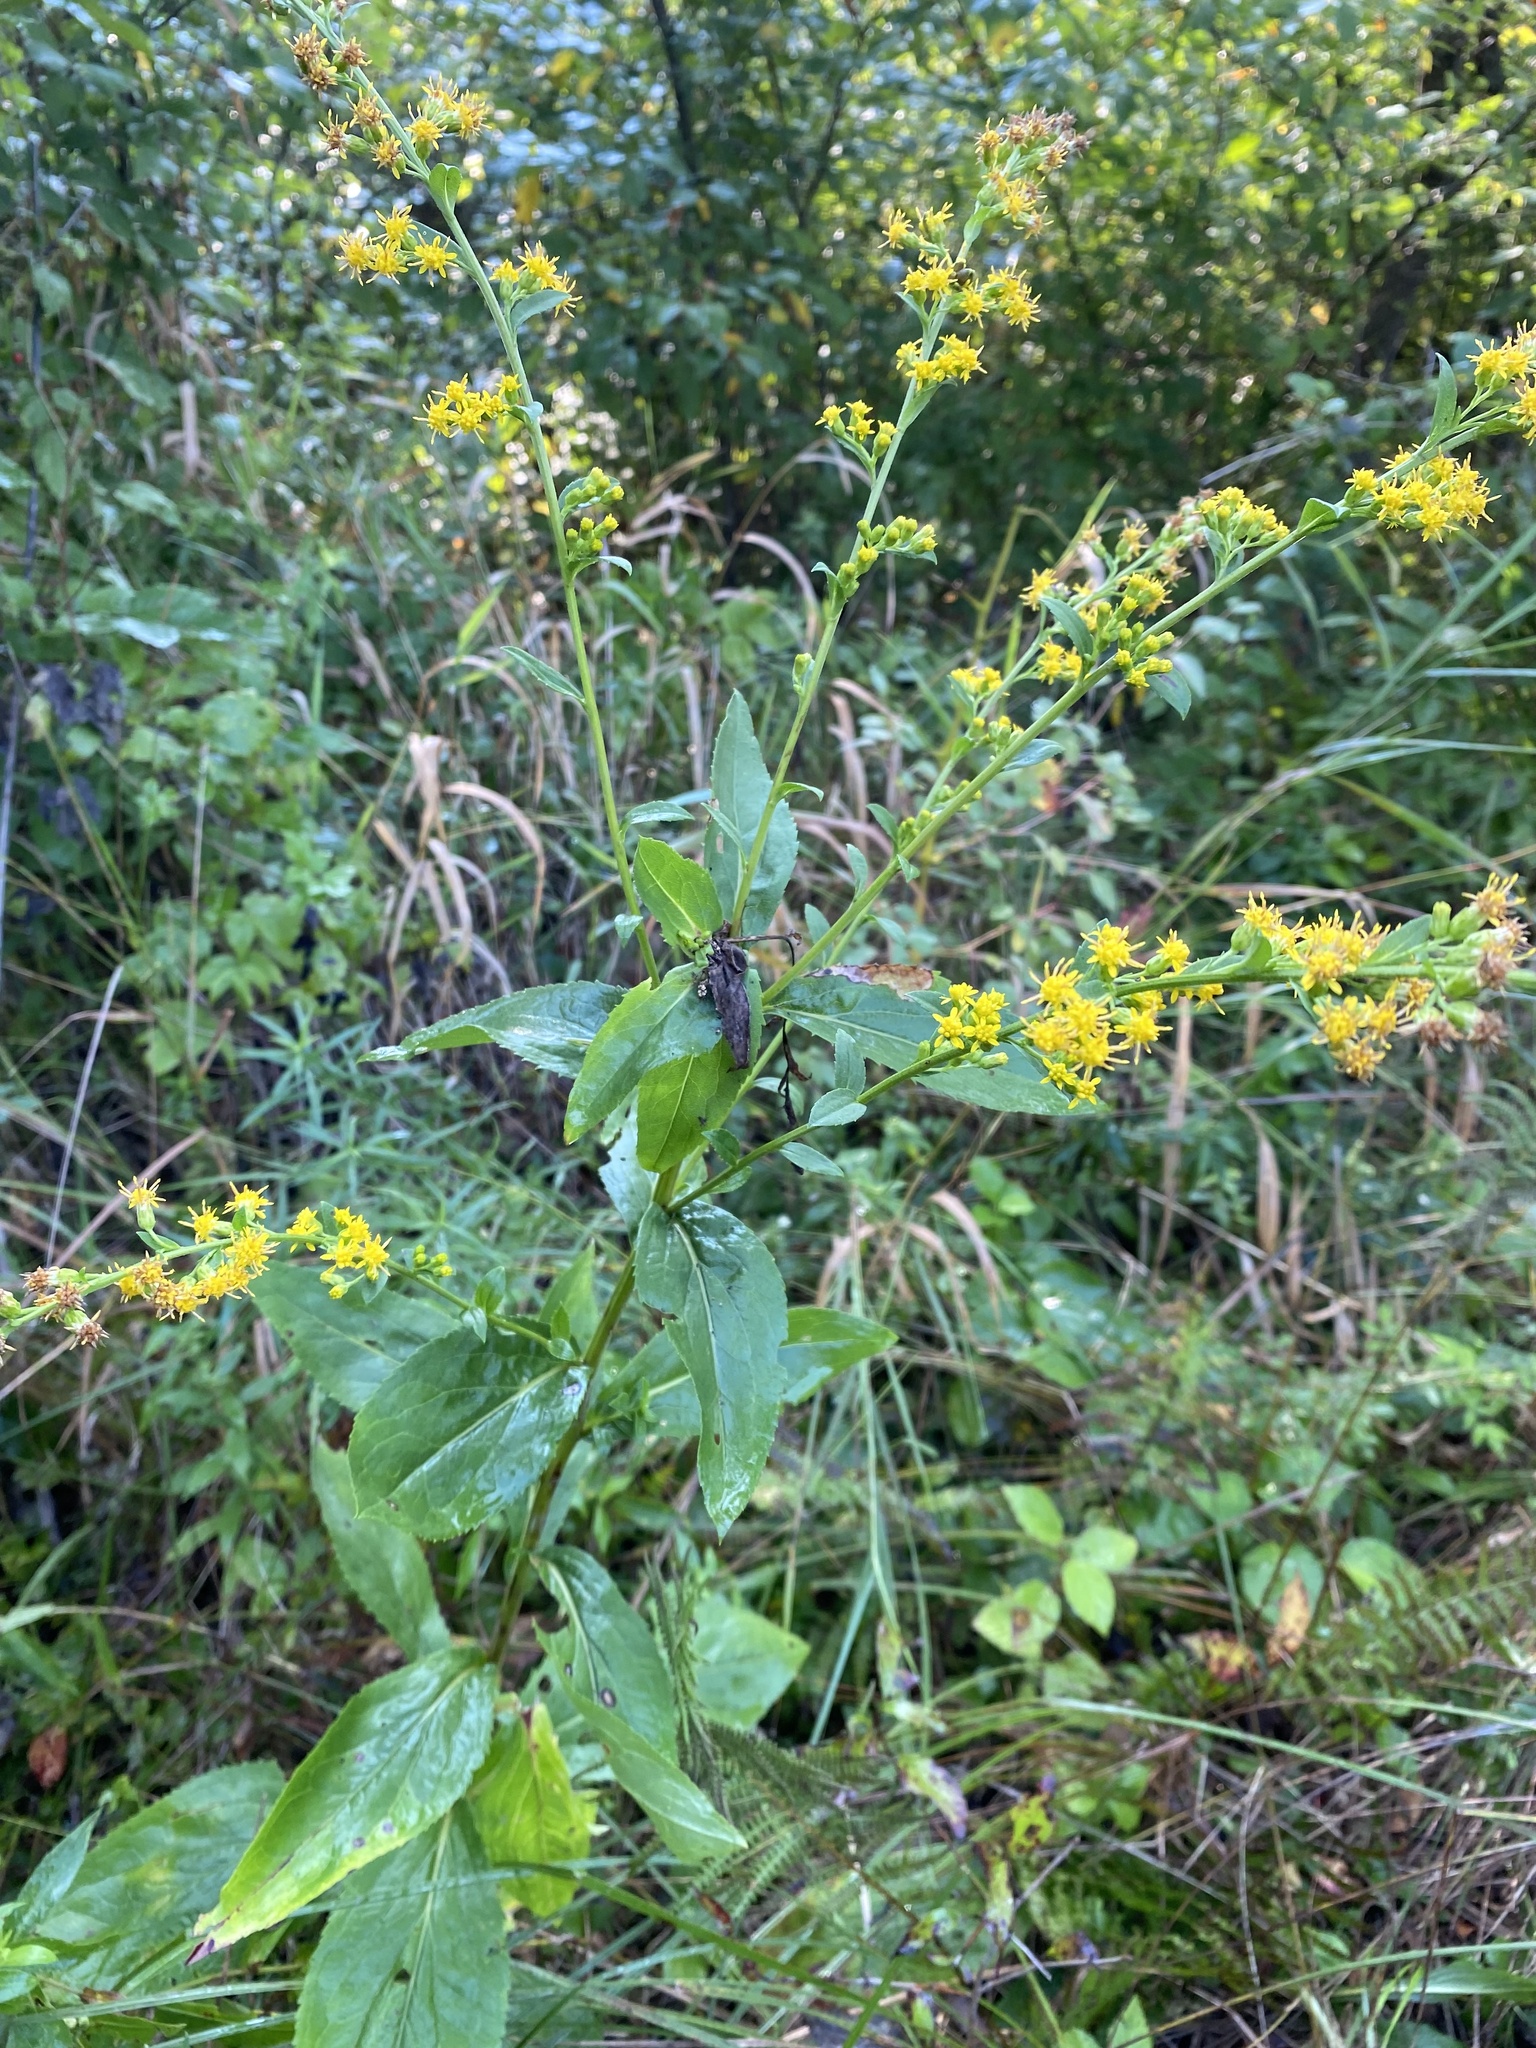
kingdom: Plantae
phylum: Tracheophyta
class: Magnoliopsida
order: Asterales
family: Asteraceae
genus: Solidago
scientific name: Solidago patula
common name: Rough-leaf goldenrod
